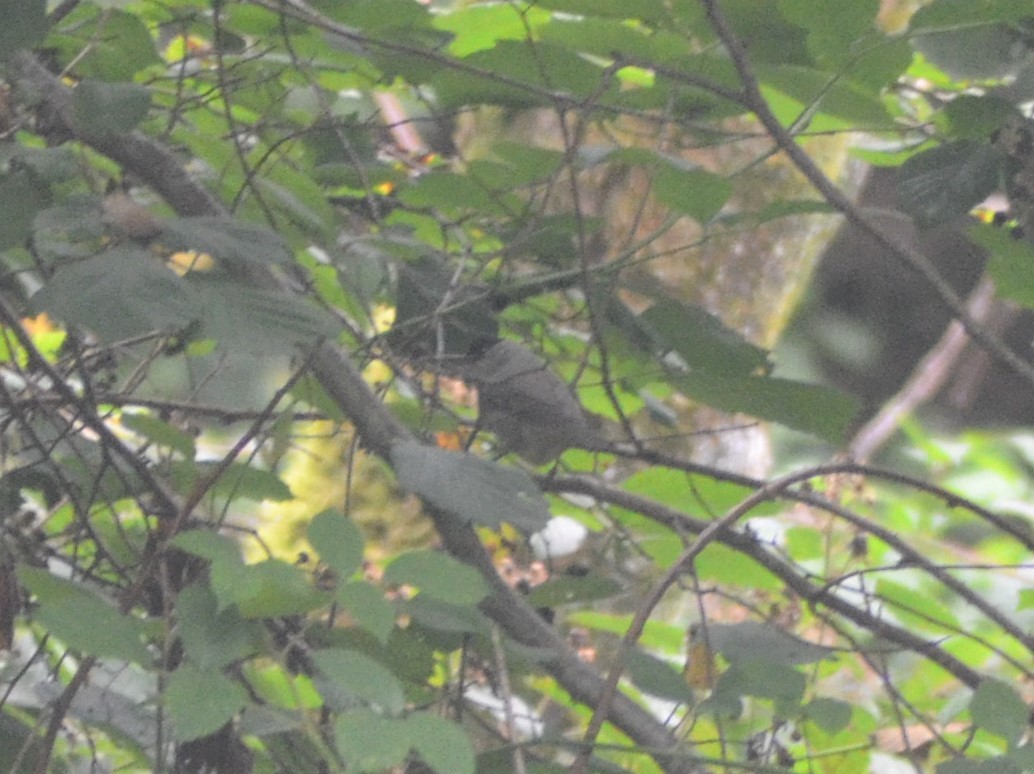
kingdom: Animalia
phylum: Chordata
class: Aves
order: Passeriformes
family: Sylviidae
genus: Sylvia
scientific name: Sylvia atricapilla
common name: Eurasian blackcap
